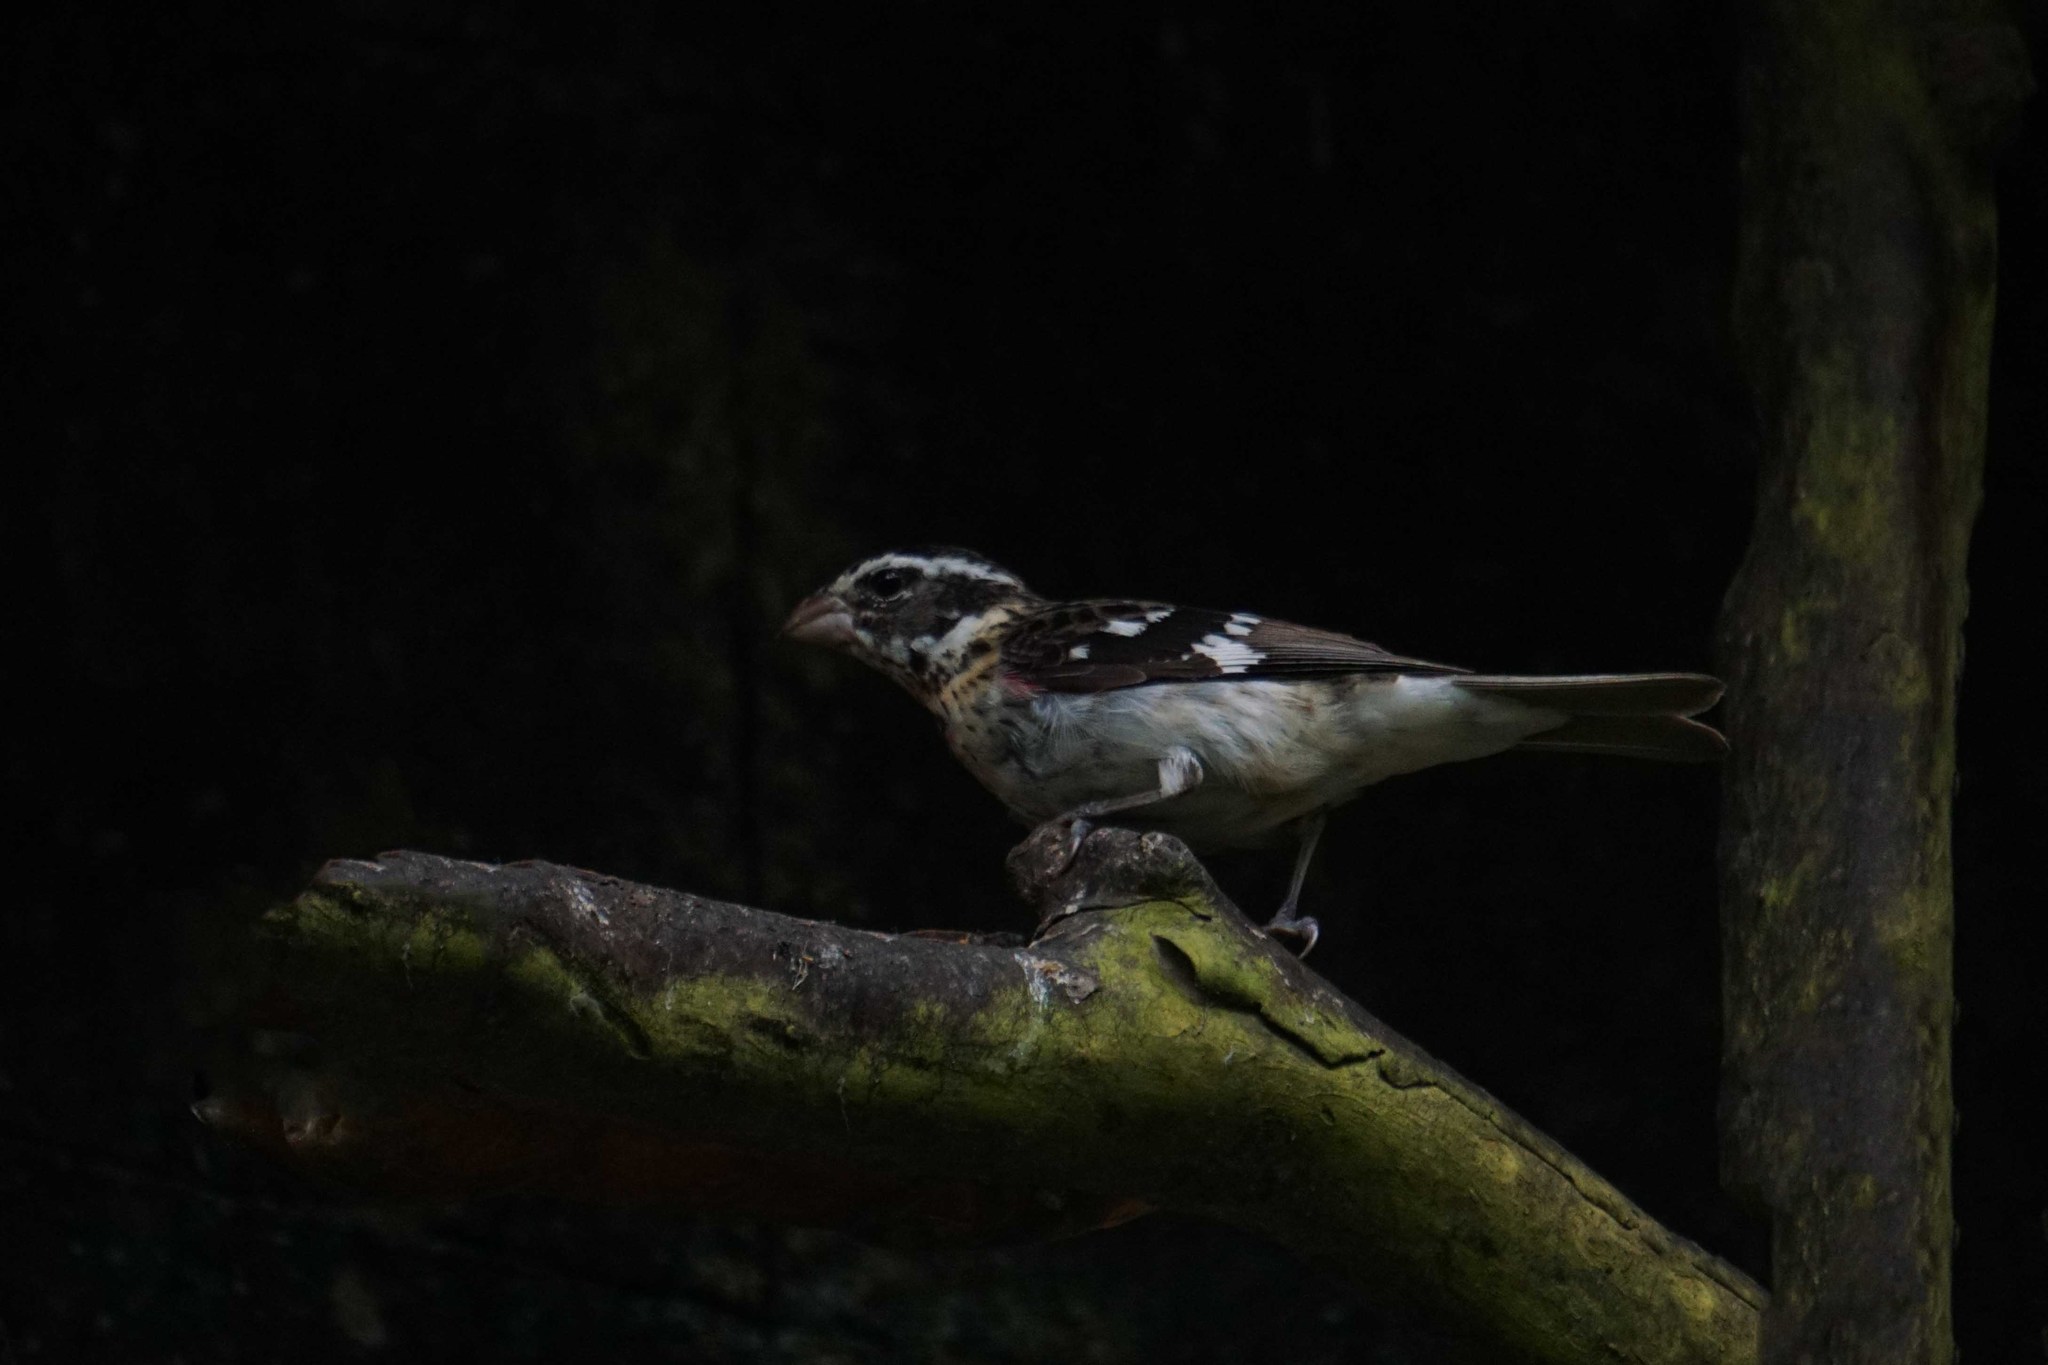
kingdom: Animalia
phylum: Chordata
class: Aves
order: Passeriformes
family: Cardinalidae
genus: Pheucticus
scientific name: Pheucticus ludovicianus
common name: Rose-breasted grosbeak
